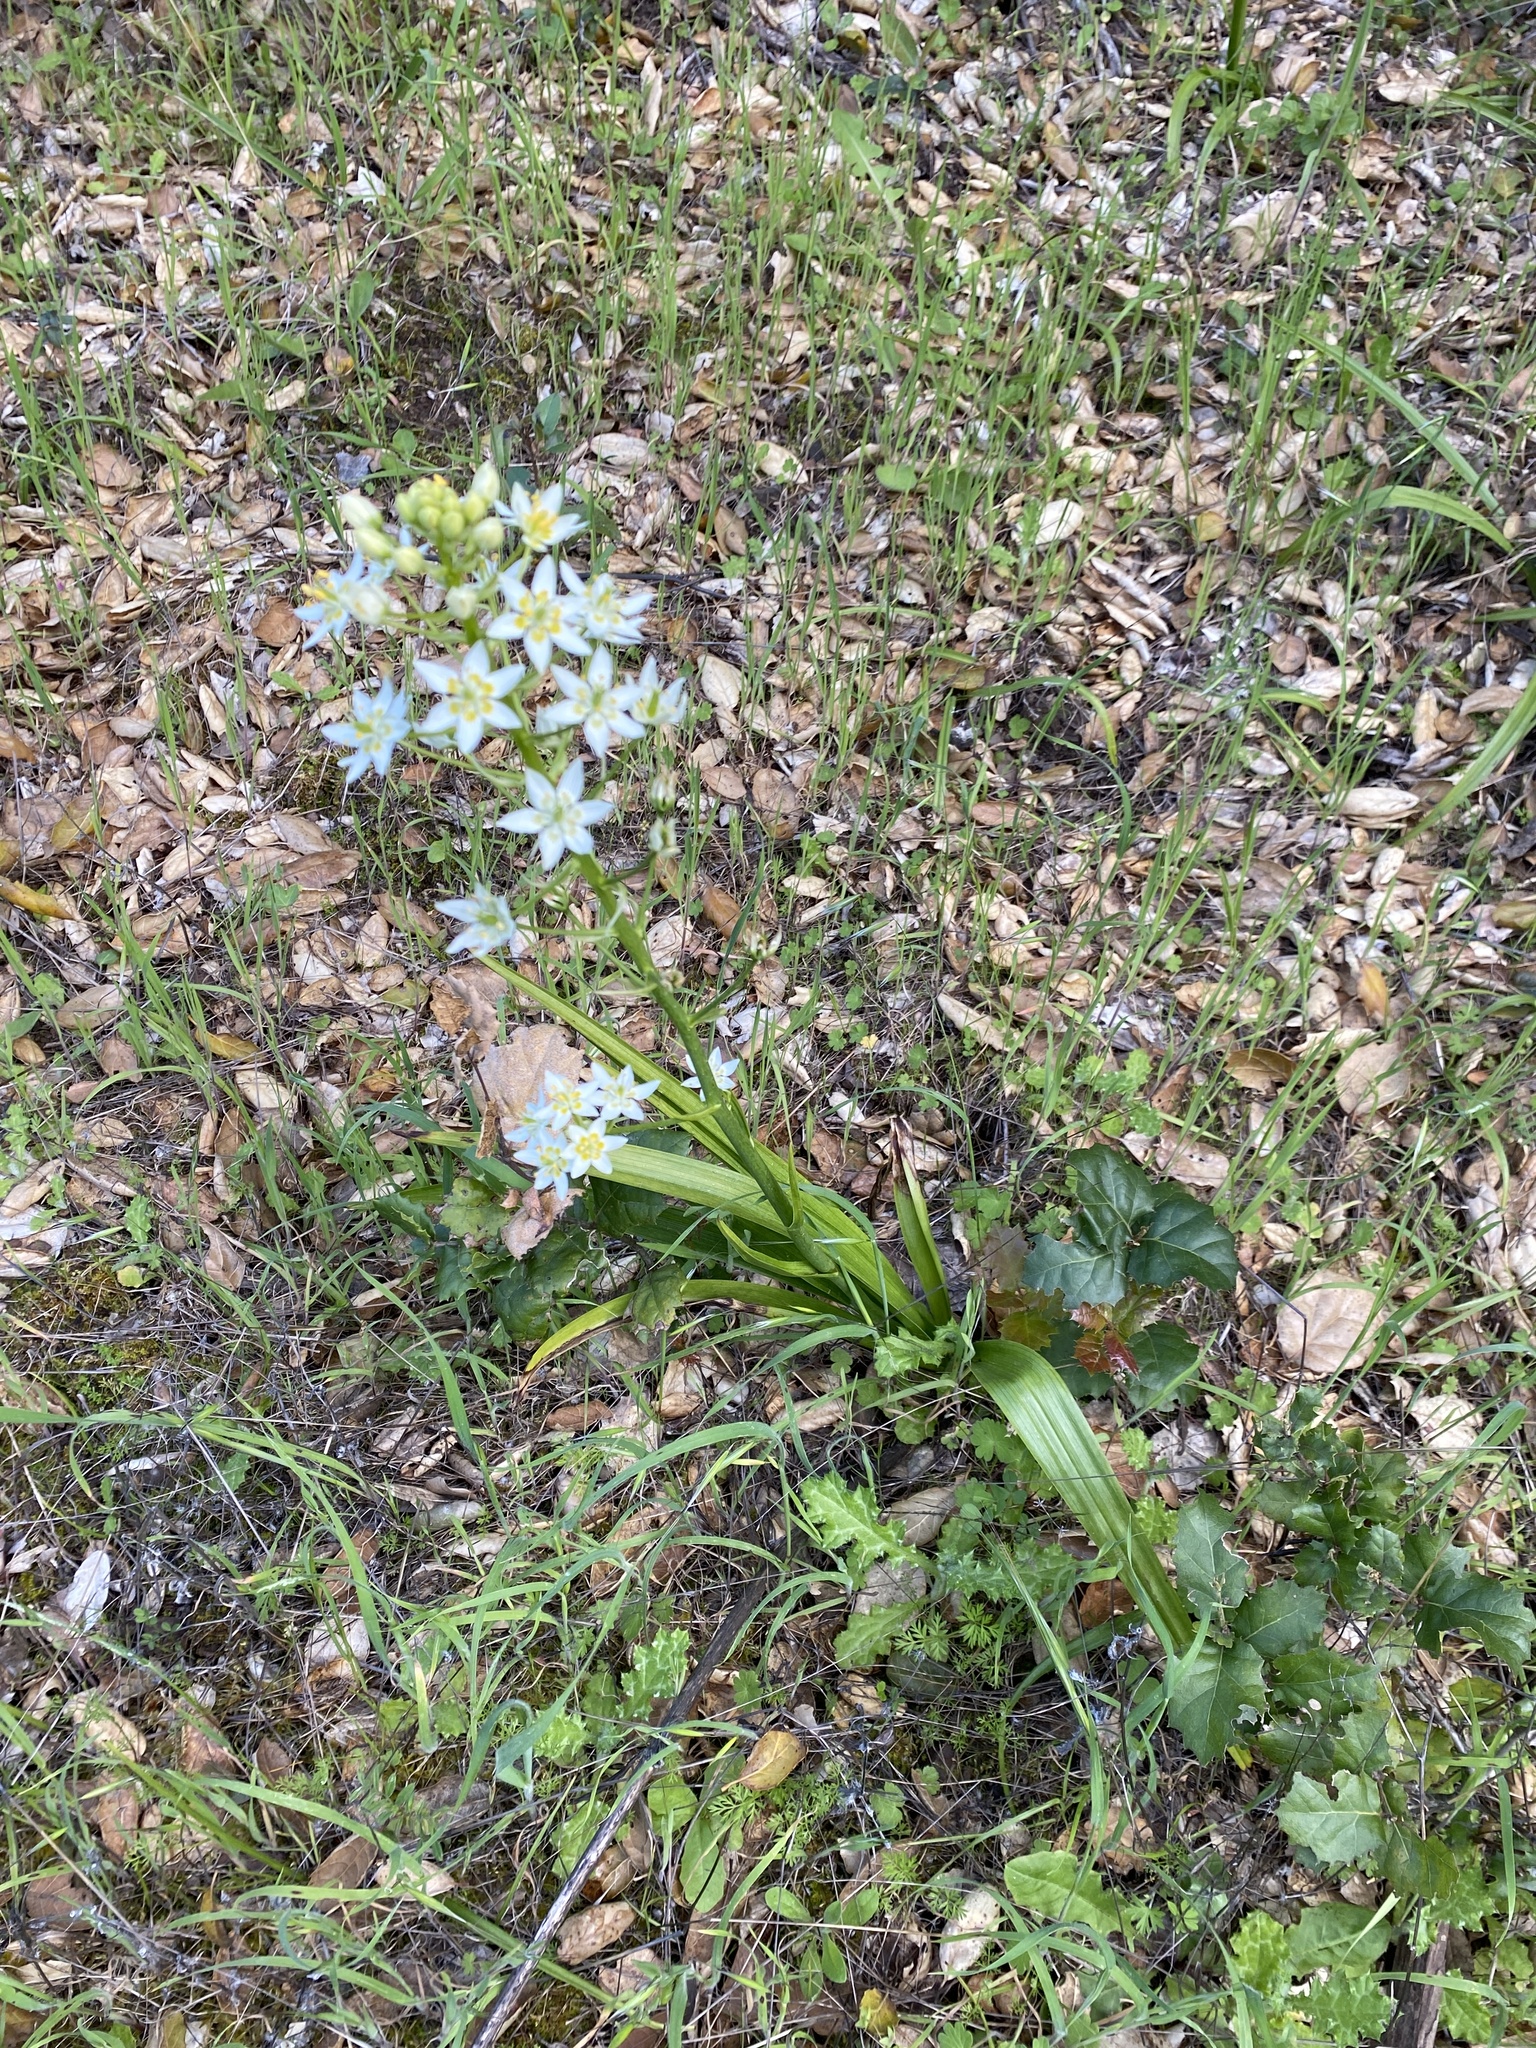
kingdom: Plantae
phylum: Tracheophyta
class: Liliopsida
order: Liliales
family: Melanthiaceae
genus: Toxicoscordion
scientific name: Toxicoscordion fremontii
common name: Fremont's death camas
